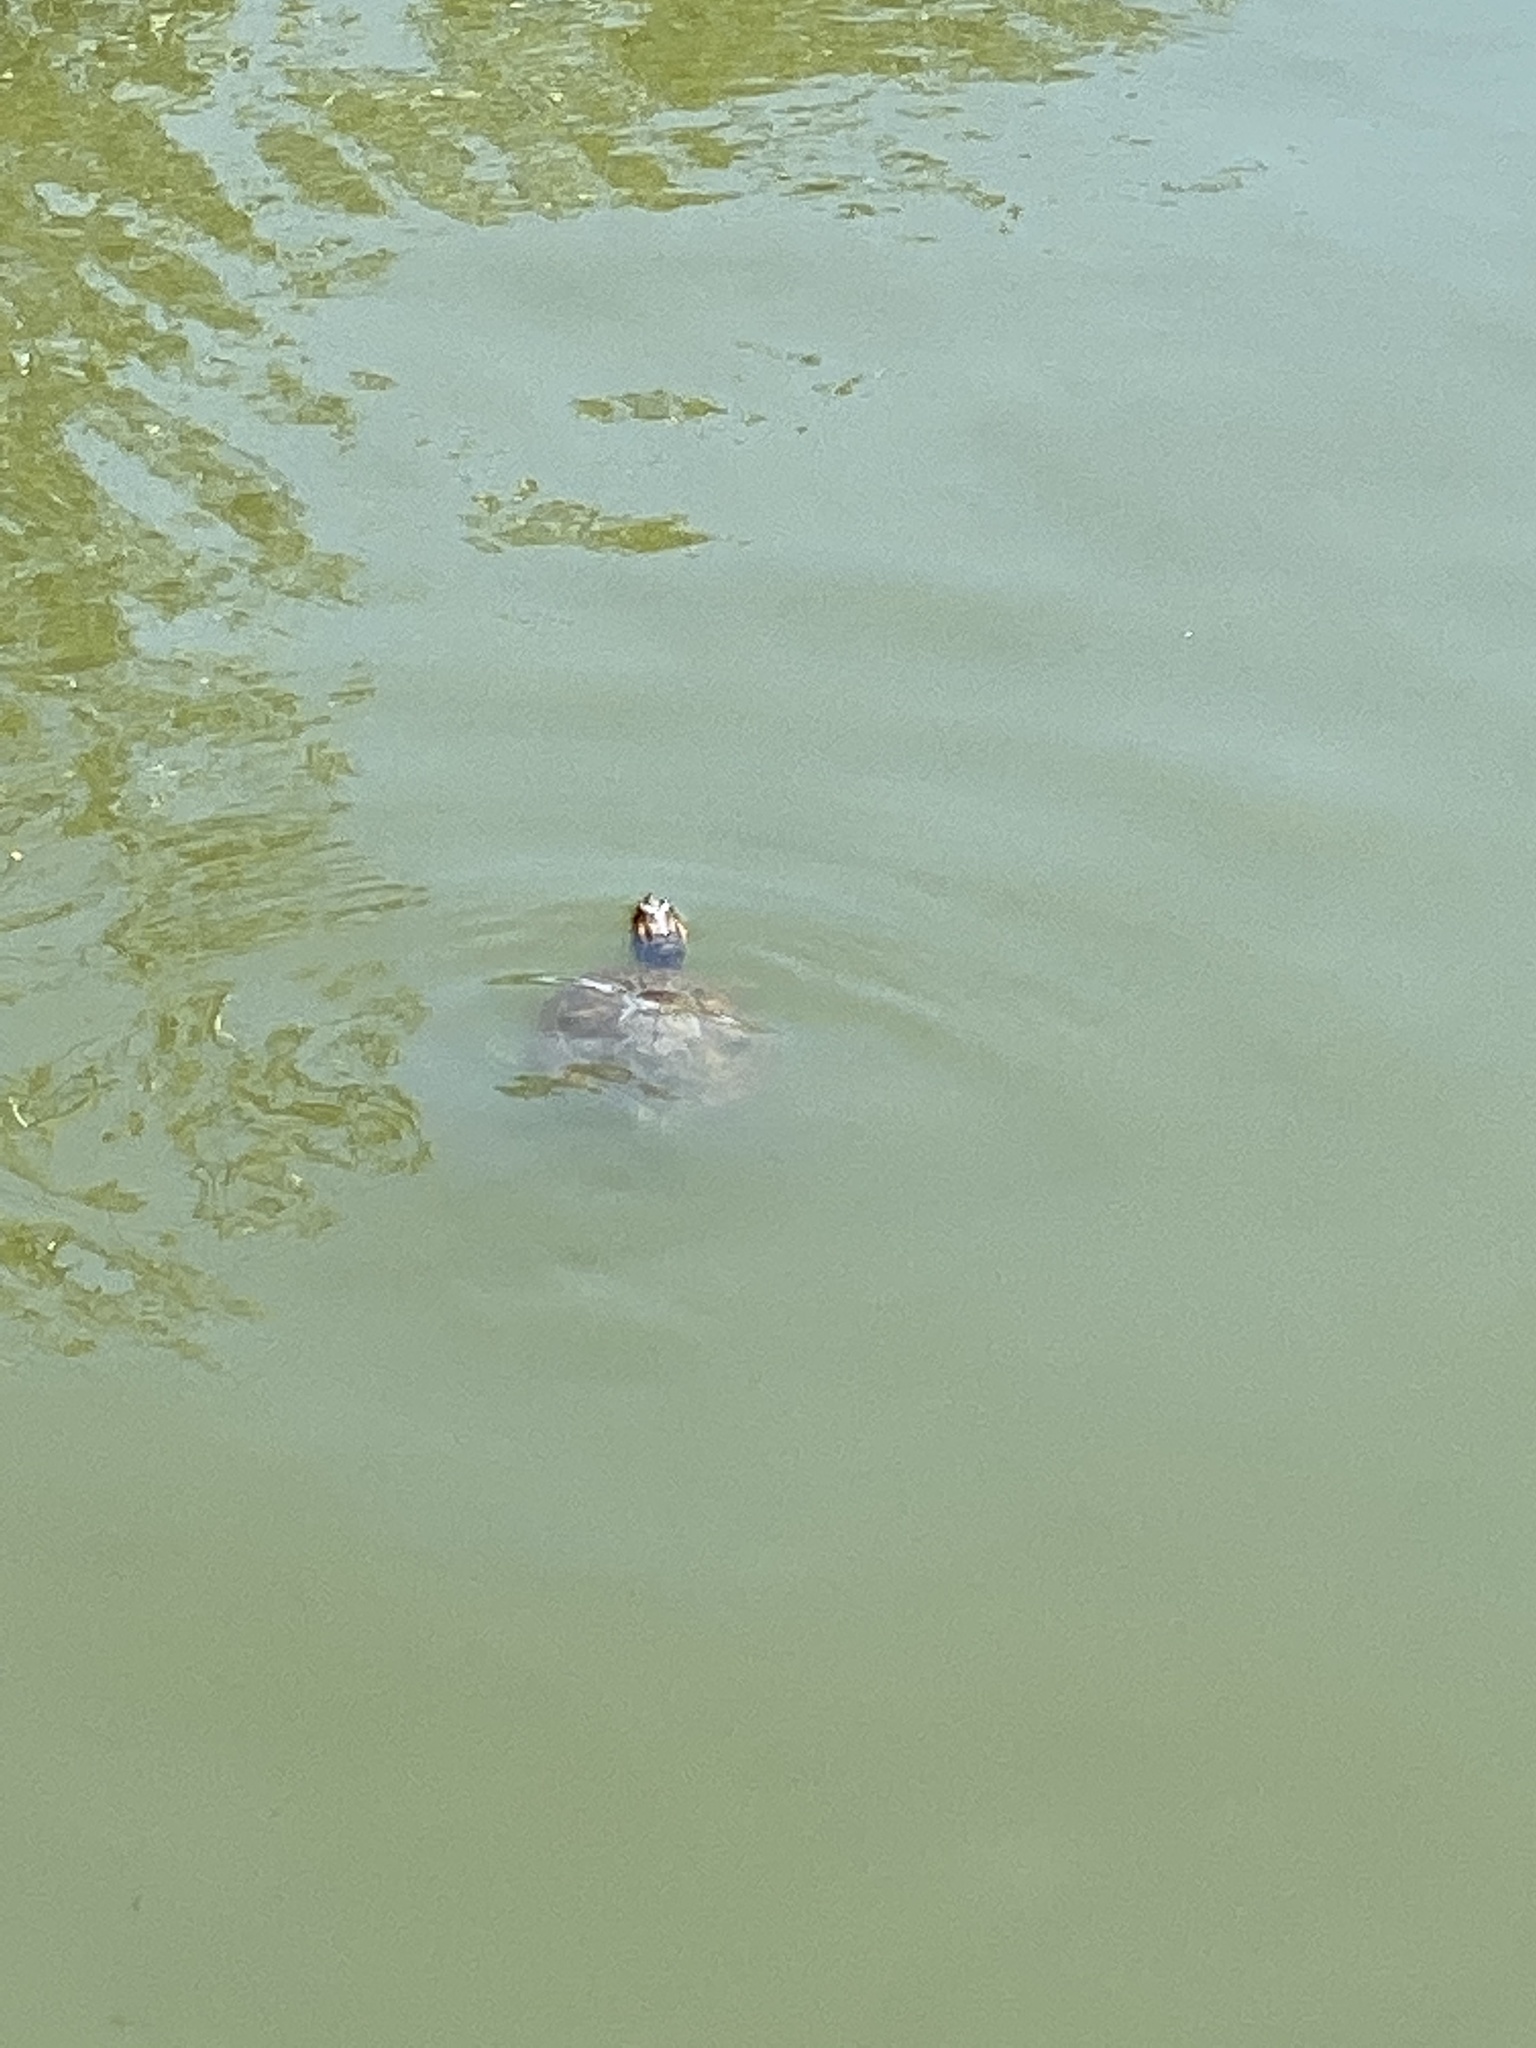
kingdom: Animalia
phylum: Chordata
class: Testudines
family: Emydidae
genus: Trachemys
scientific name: Trachemys scripta
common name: Slider
